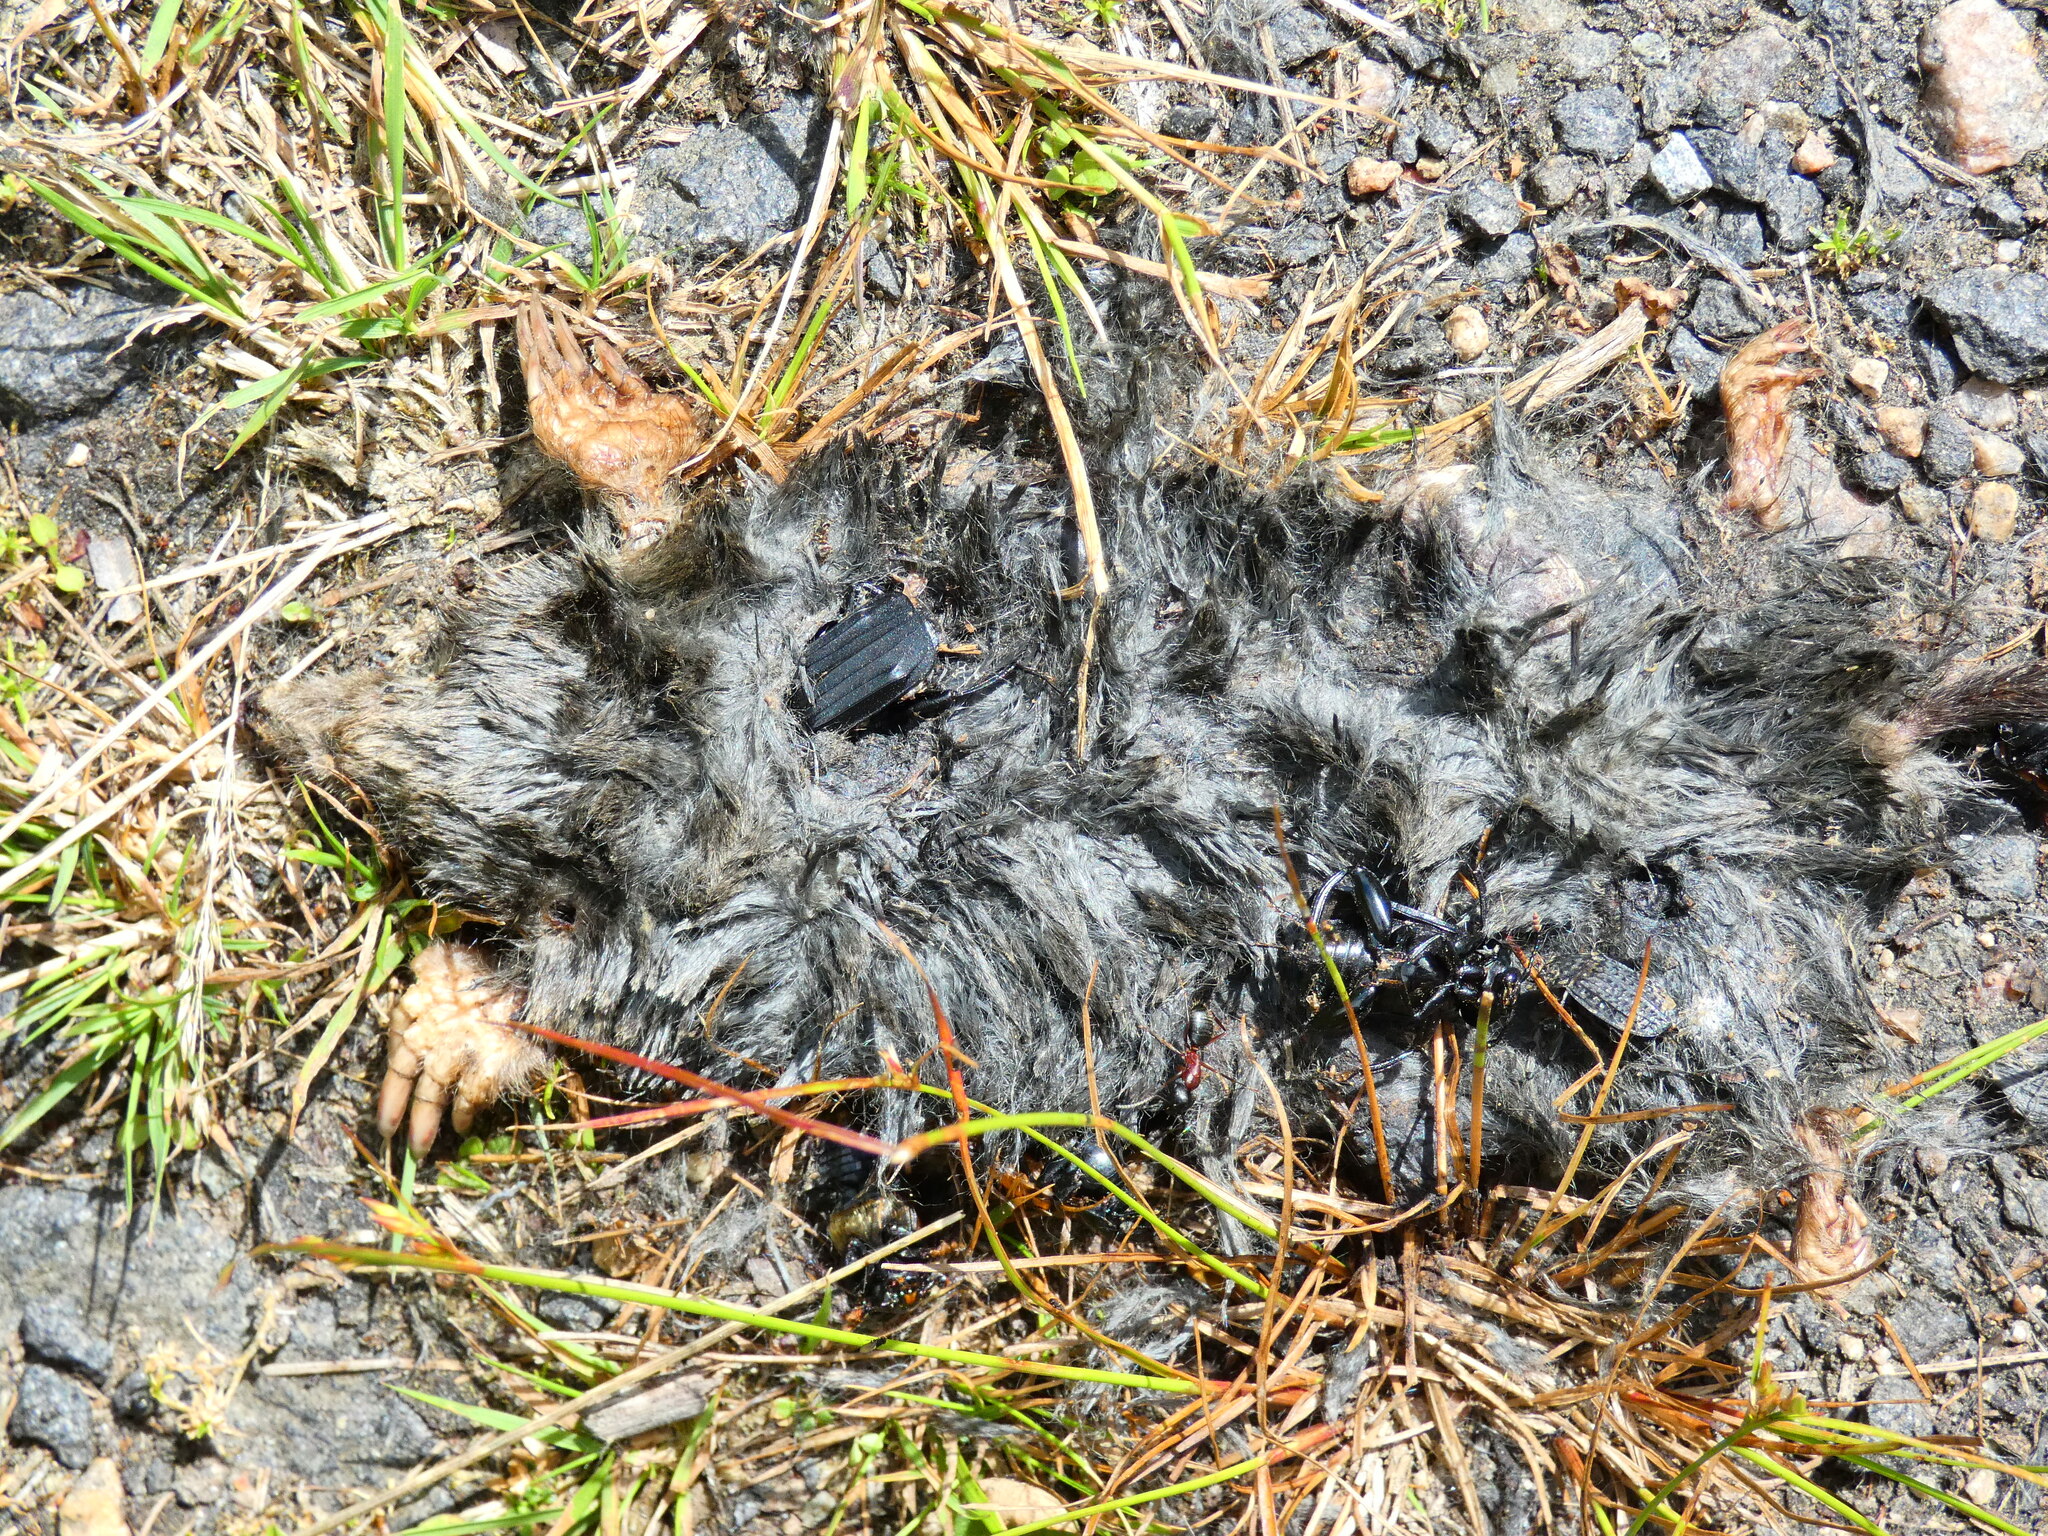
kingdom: Animalia
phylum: Chordata
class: Mammalia
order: Soricomorpha
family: Talpidae
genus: Talpa
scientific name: Talpa europaea
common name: European mole
